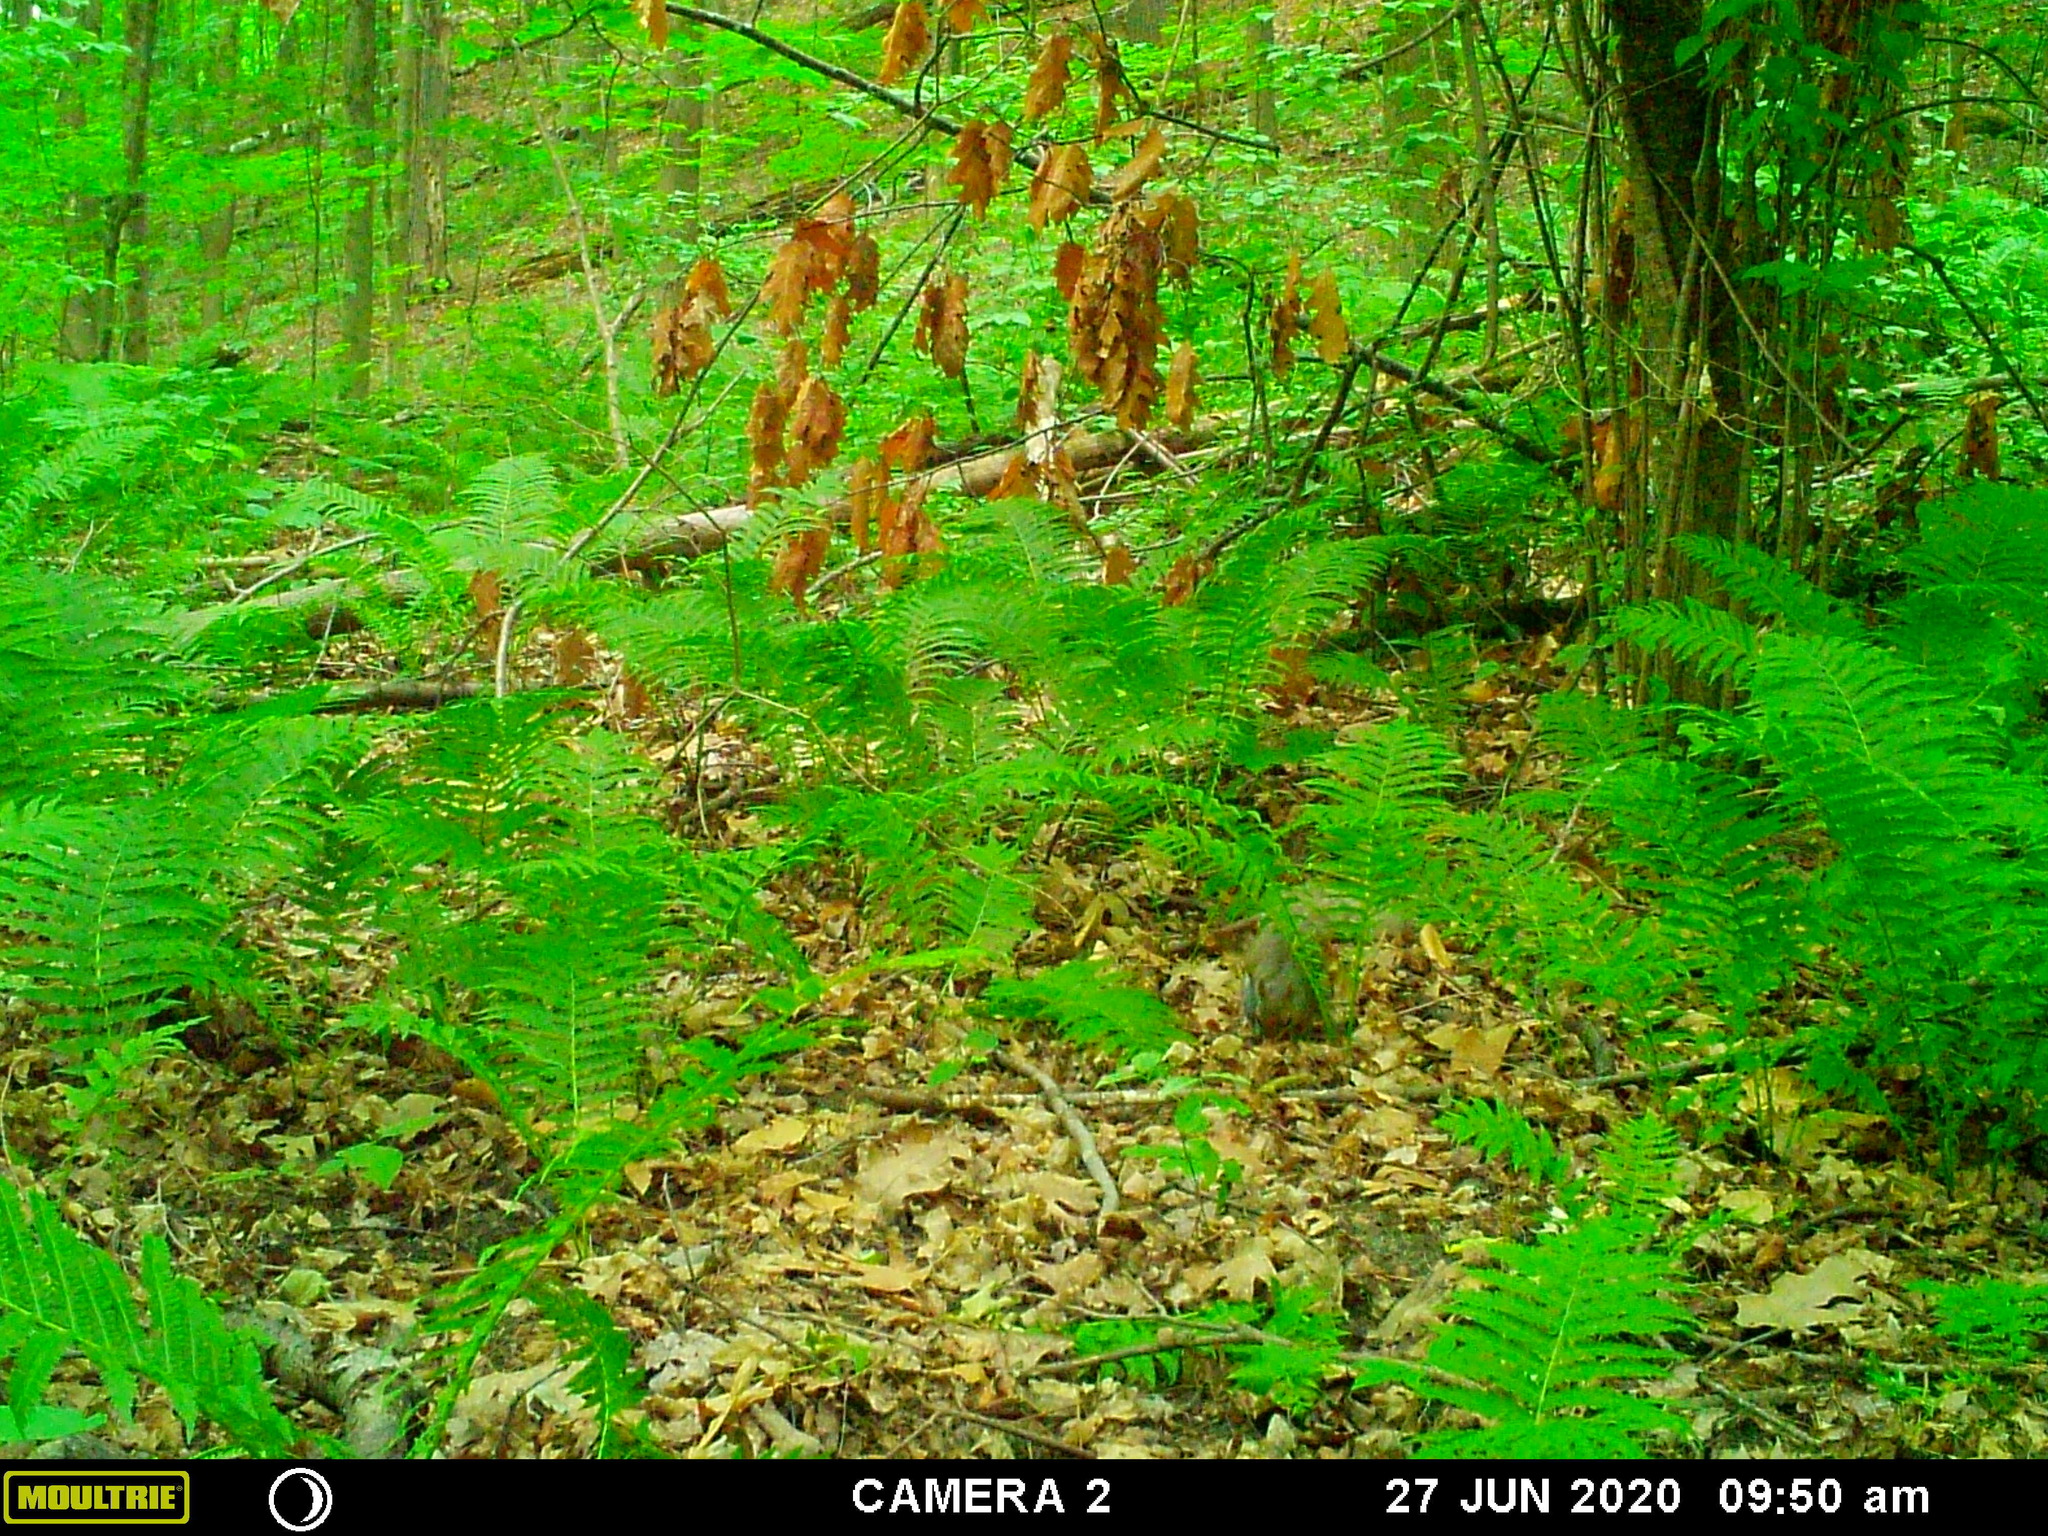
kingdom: Animalia
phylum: Chordata
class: Mammalia
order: Rodentia
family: Sciuridae
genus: Sciurus
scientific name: Sciurus carolinensis
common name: Eastern gray squirrel
